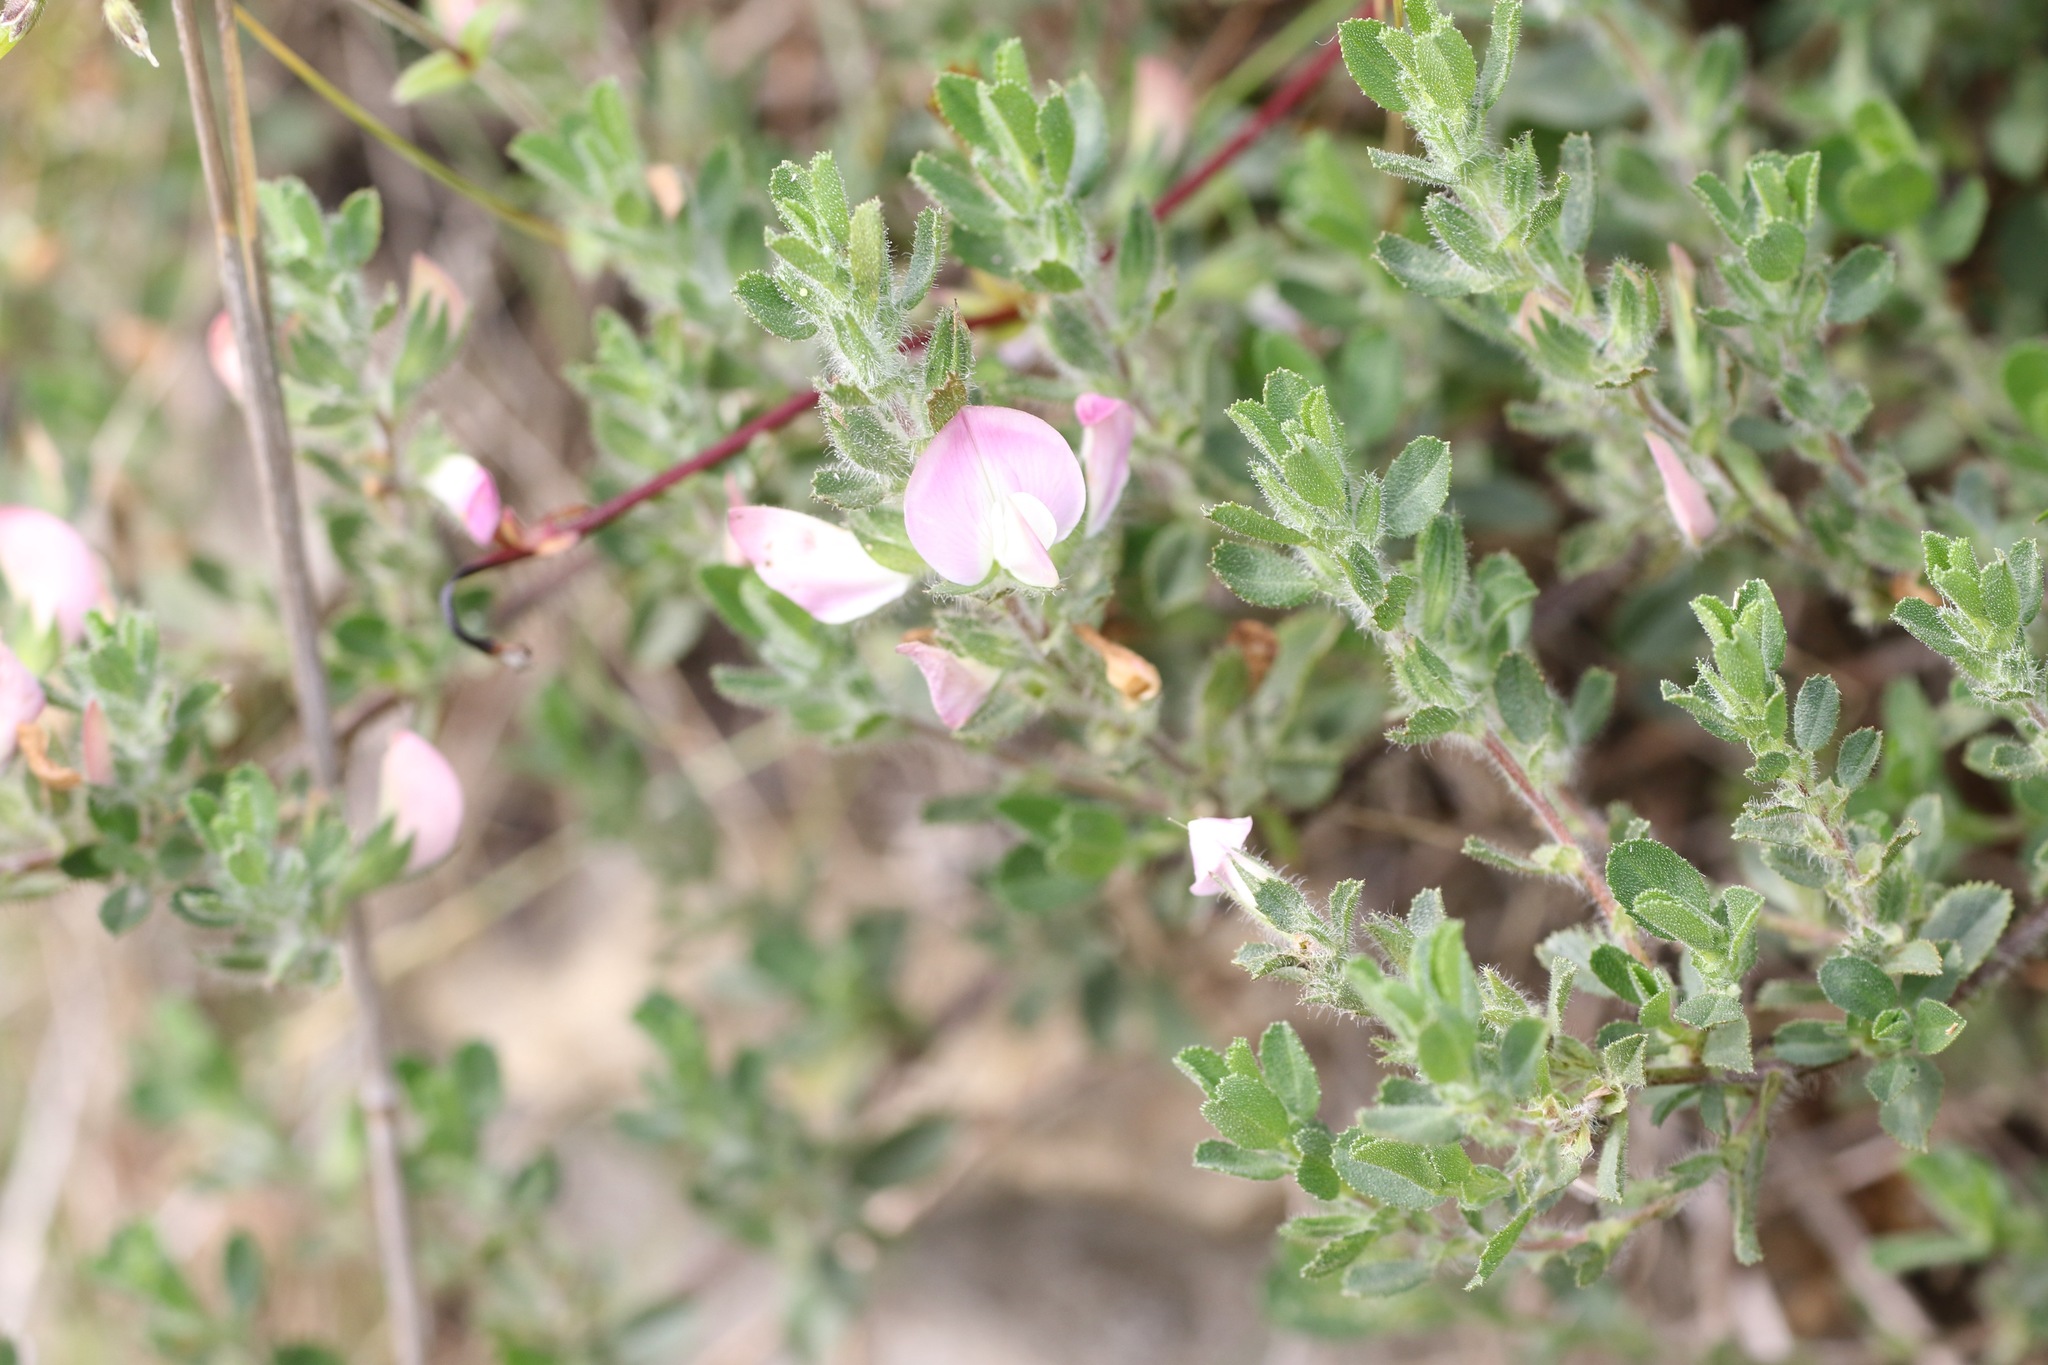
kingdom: Plantae
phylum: Tracheophyta
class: Magnoliopsida
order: Fabales
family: Fabaceae
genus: Ononis
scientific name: Ononis spinosa
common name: Spiny restharrow
